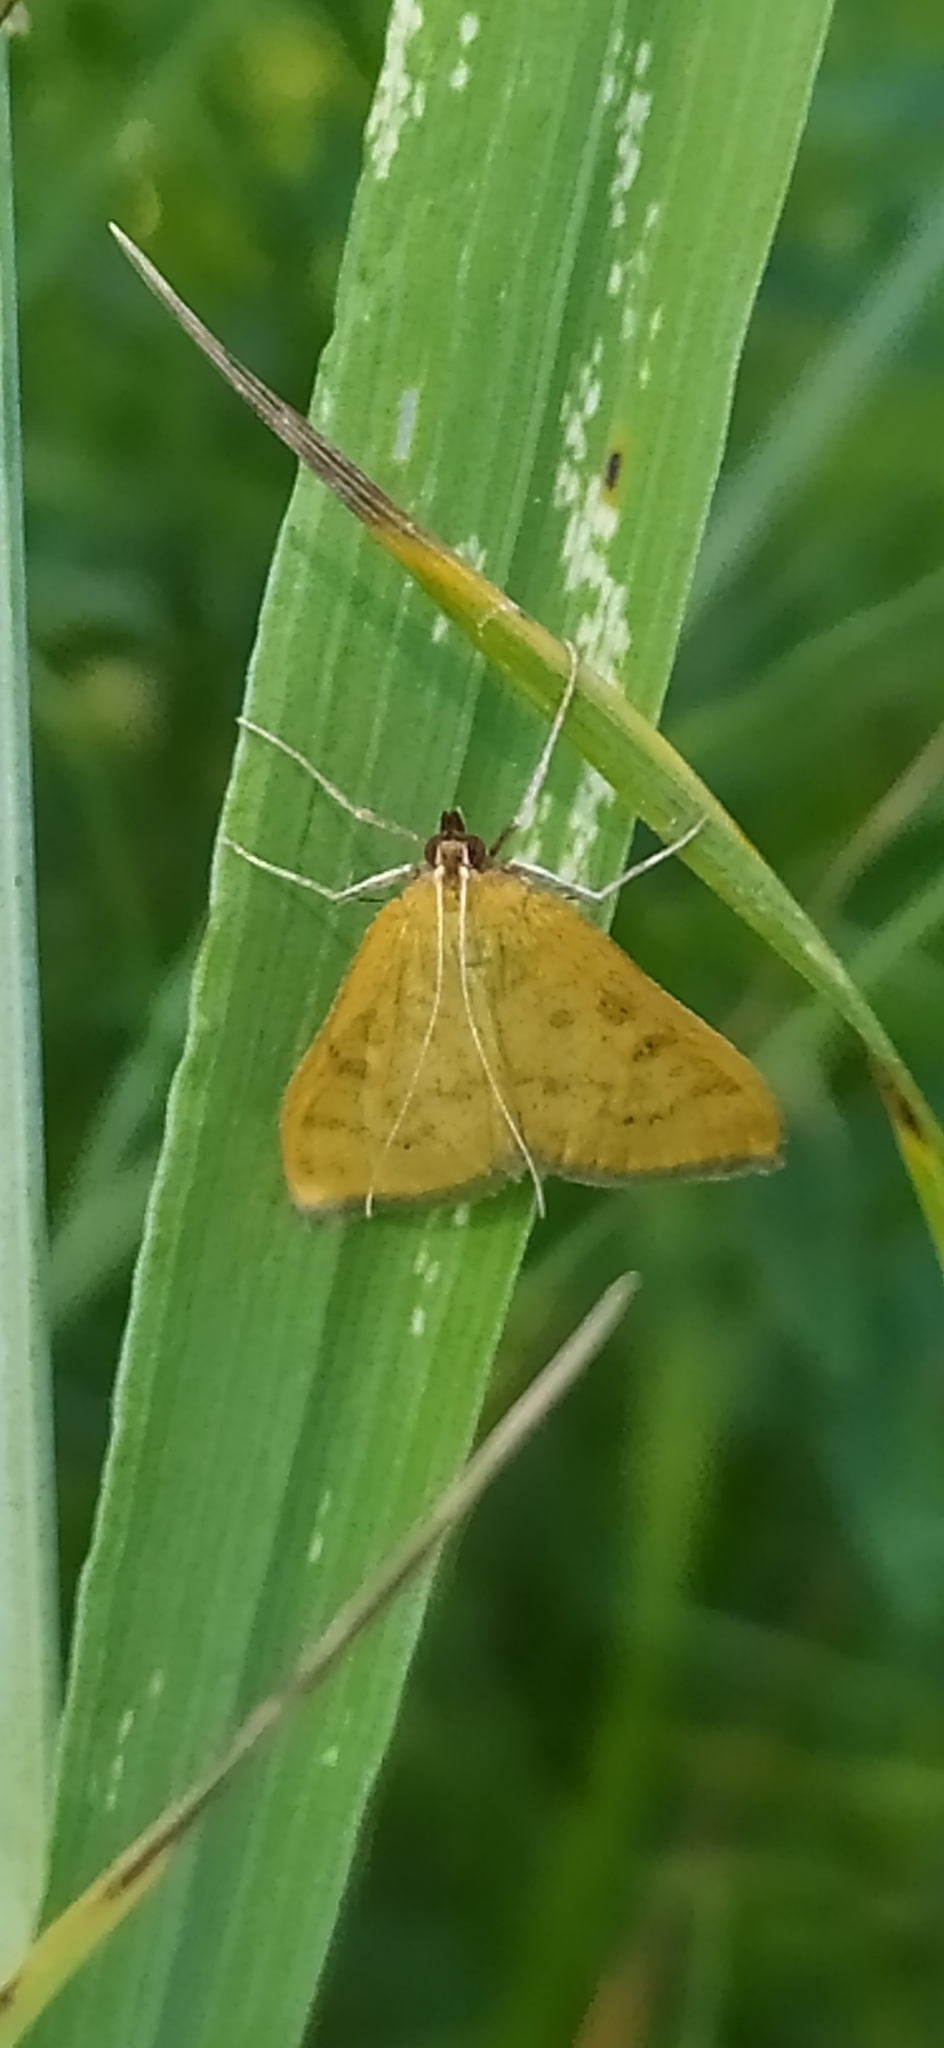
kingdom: Animalia
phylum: Arthropoda
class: Insecta
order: Lepidoptera
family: Crambidae
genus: Mecyna
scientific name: Mecyna flavalis
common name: Yellow pearl
